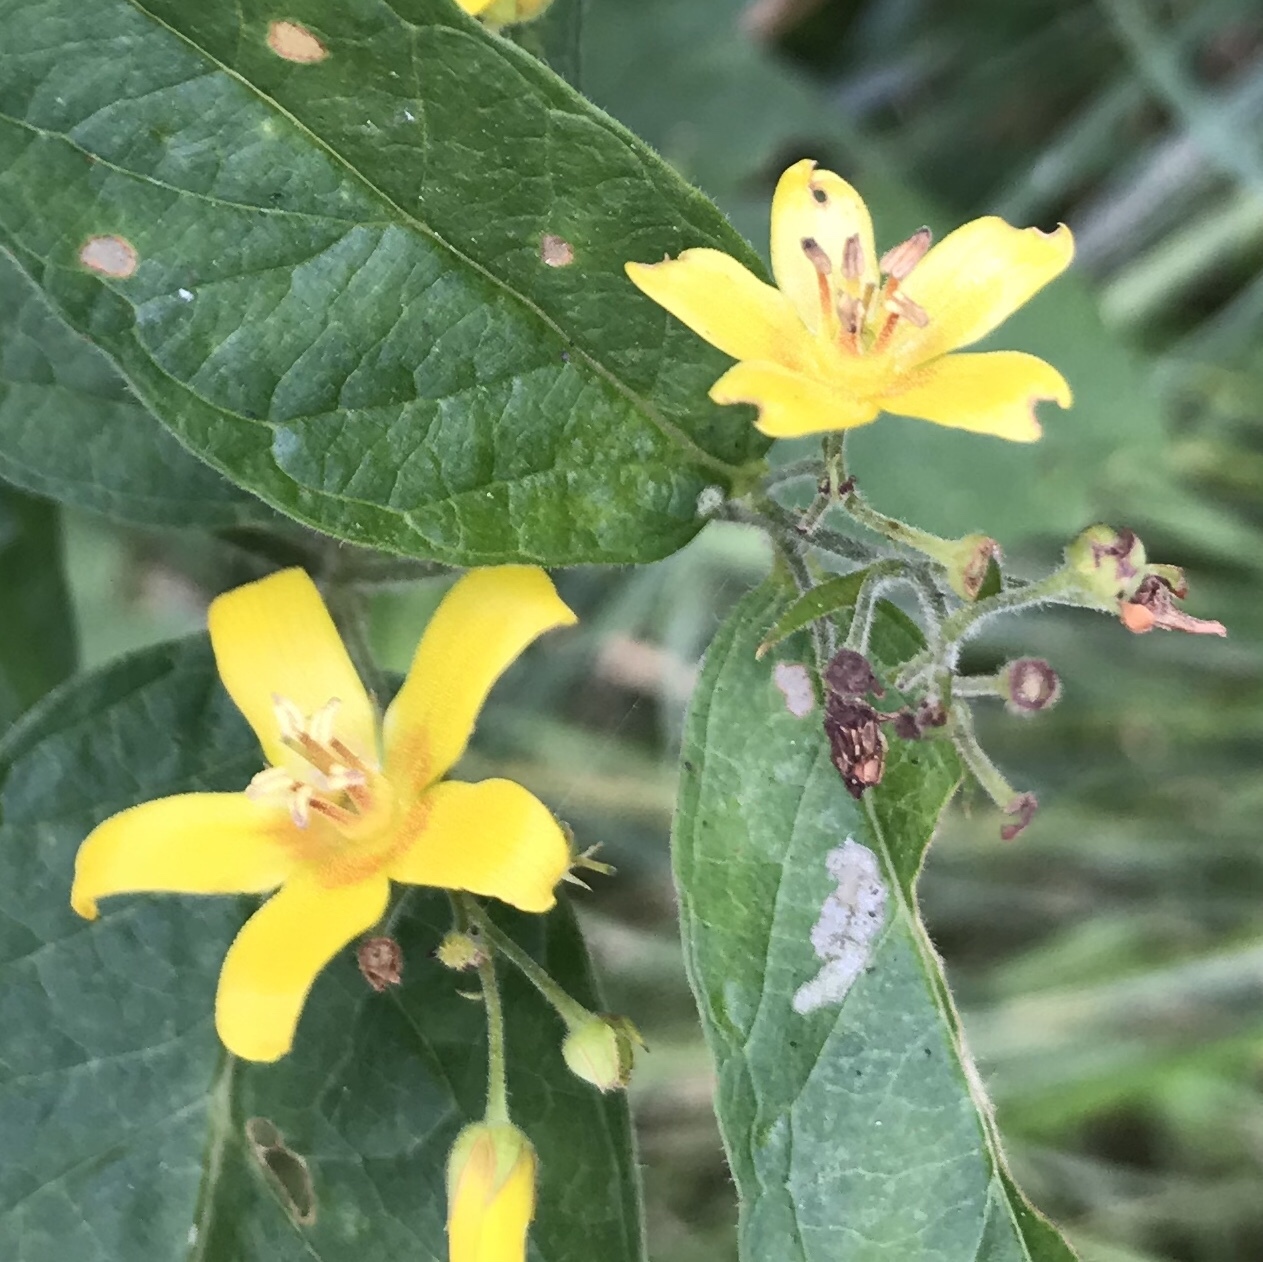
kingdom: Plantae
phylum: Tracheophyta
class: Magnoliopsida
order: Ericales
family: Primulaceae
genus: Lysimachia
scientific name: Lysimachia vulgaris
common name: Yellow loosestrife
